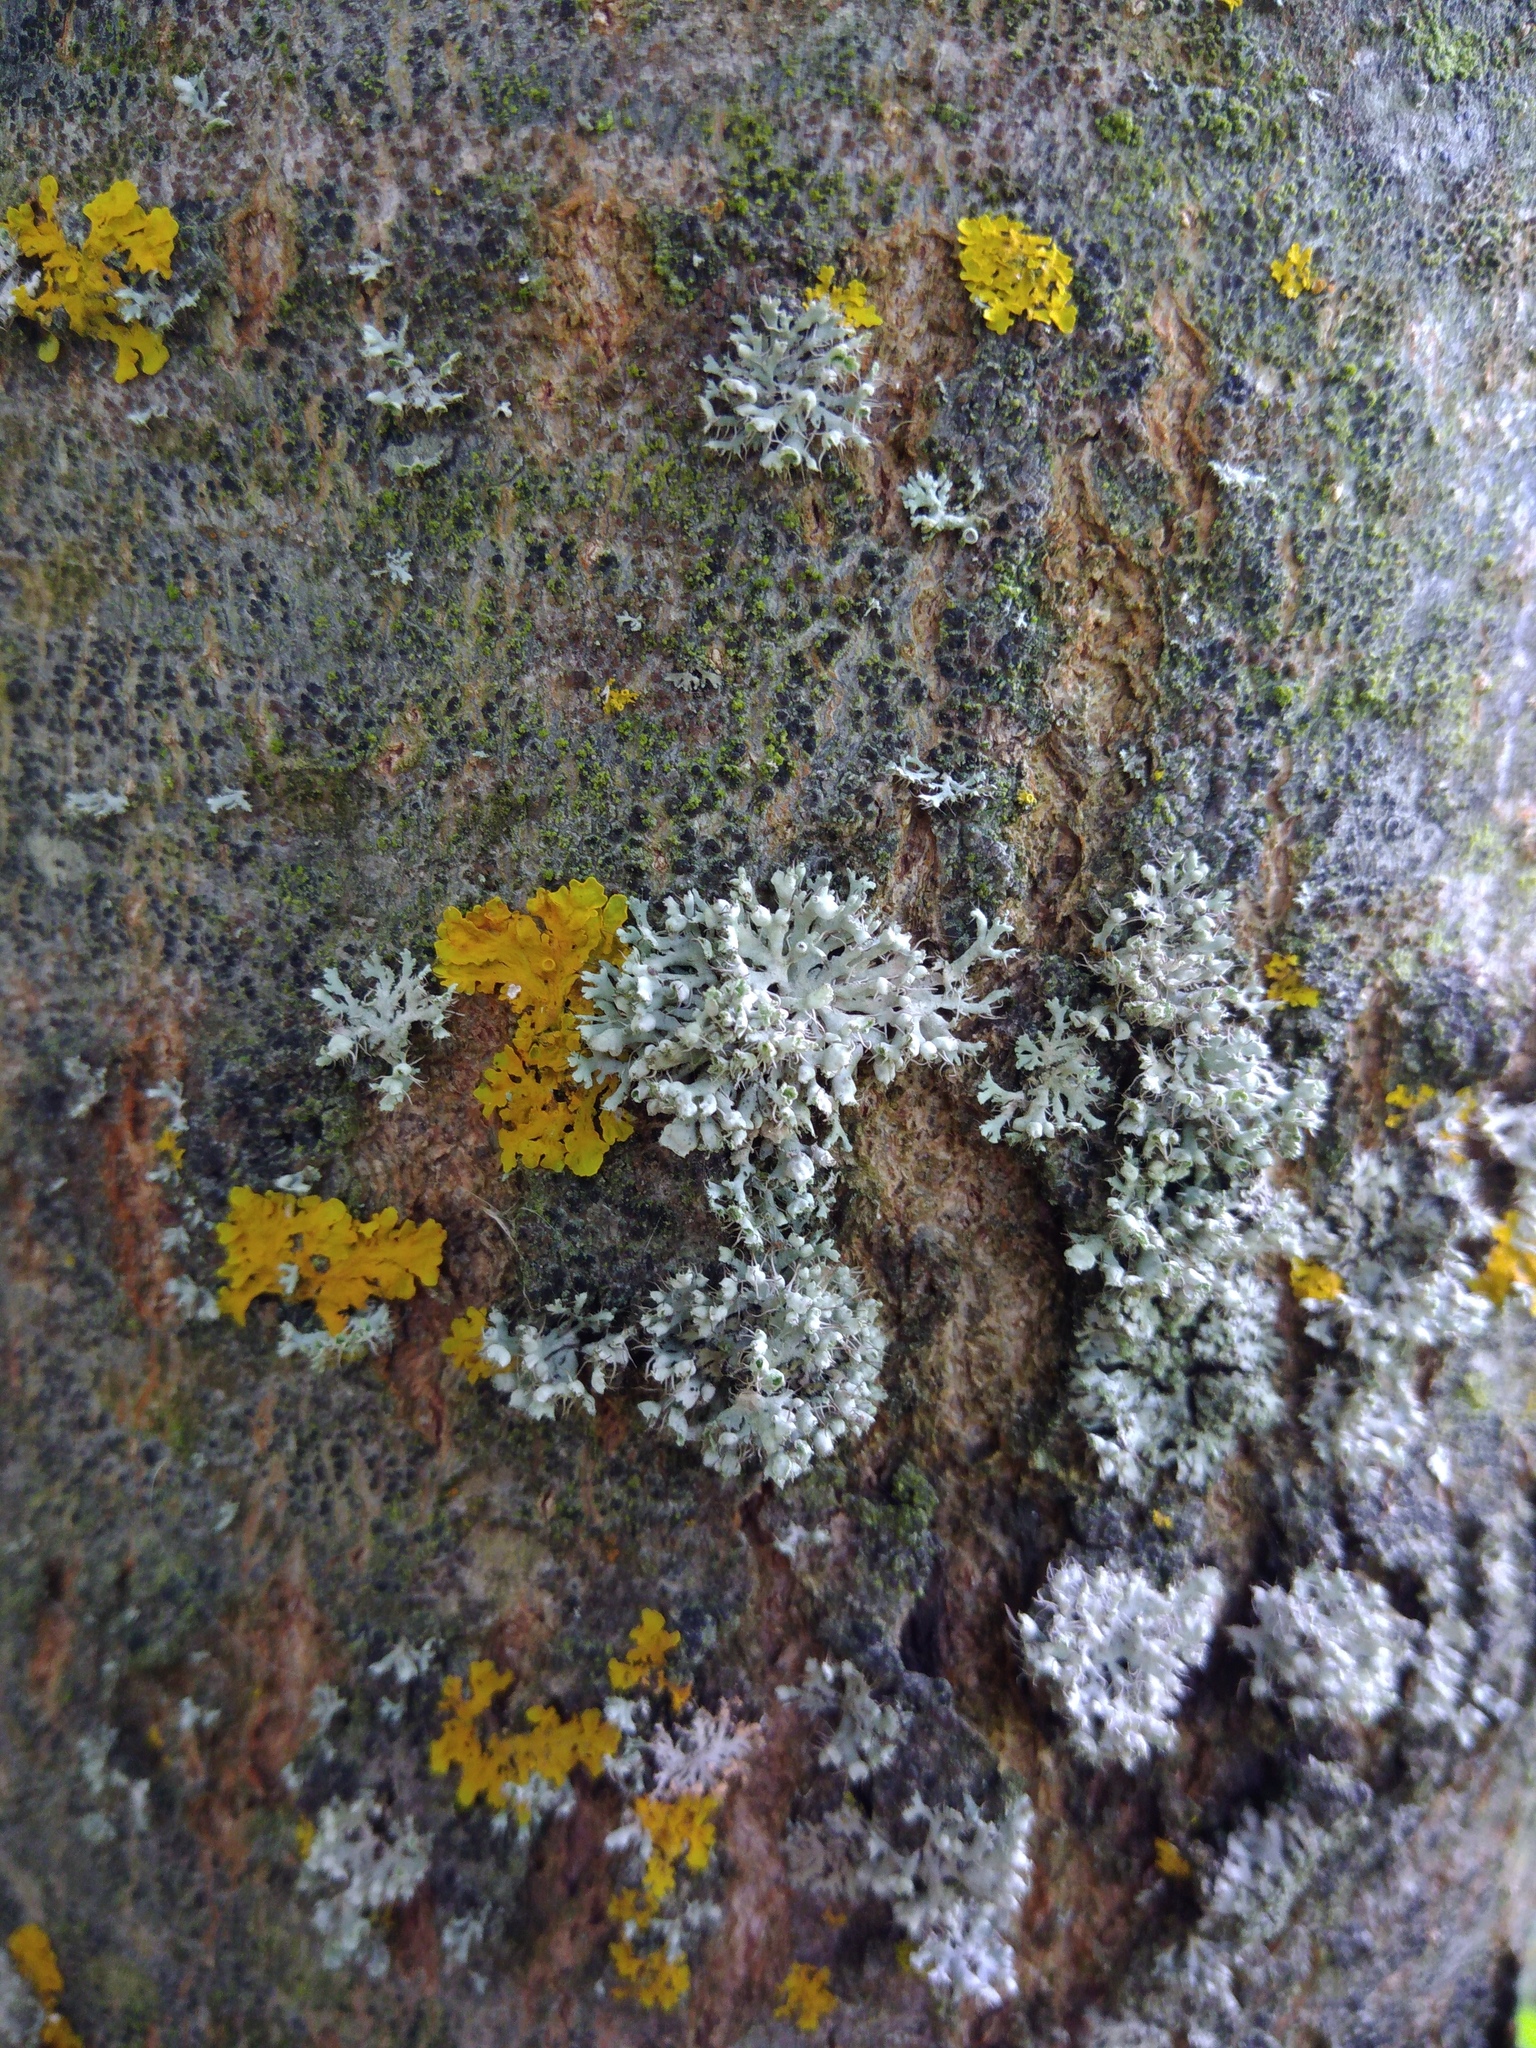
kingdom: Fungi
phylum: Ascomycota
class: Lecanoromycetes
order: Caliciales
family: Physciaceae
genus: Physcia
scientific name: Physcia adscendens
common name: Hooded rosette lichen
